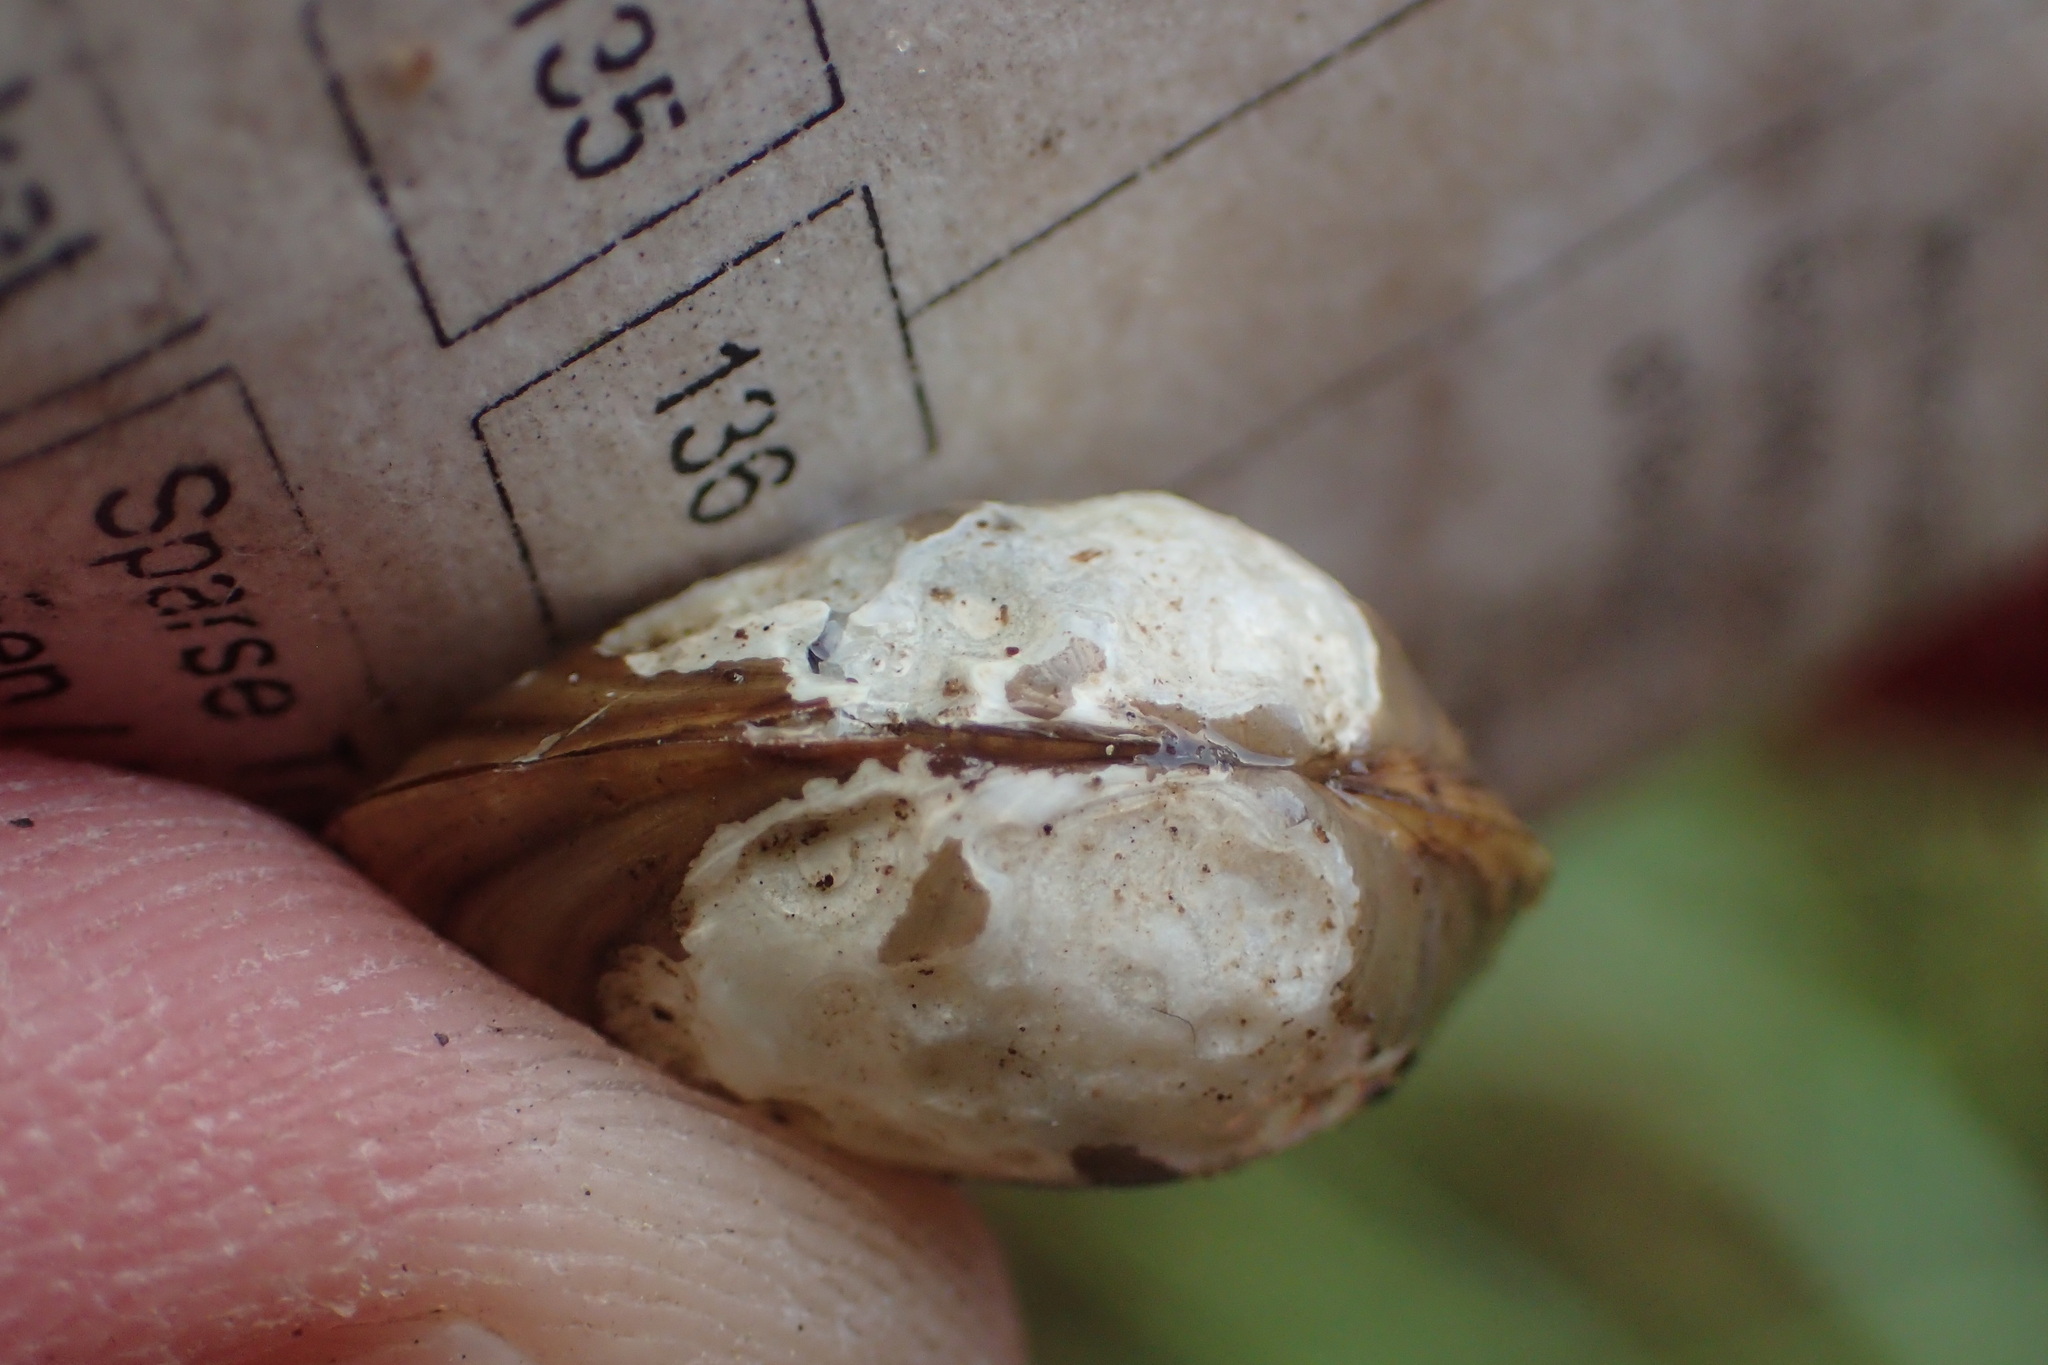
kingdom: Animalia
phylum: Mollusca
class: Bivalvia
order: Sphaeriida
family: Sphaeriidae
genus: Sphaerium
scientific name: Sphaerium simile
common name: Grooved fingernailclam
